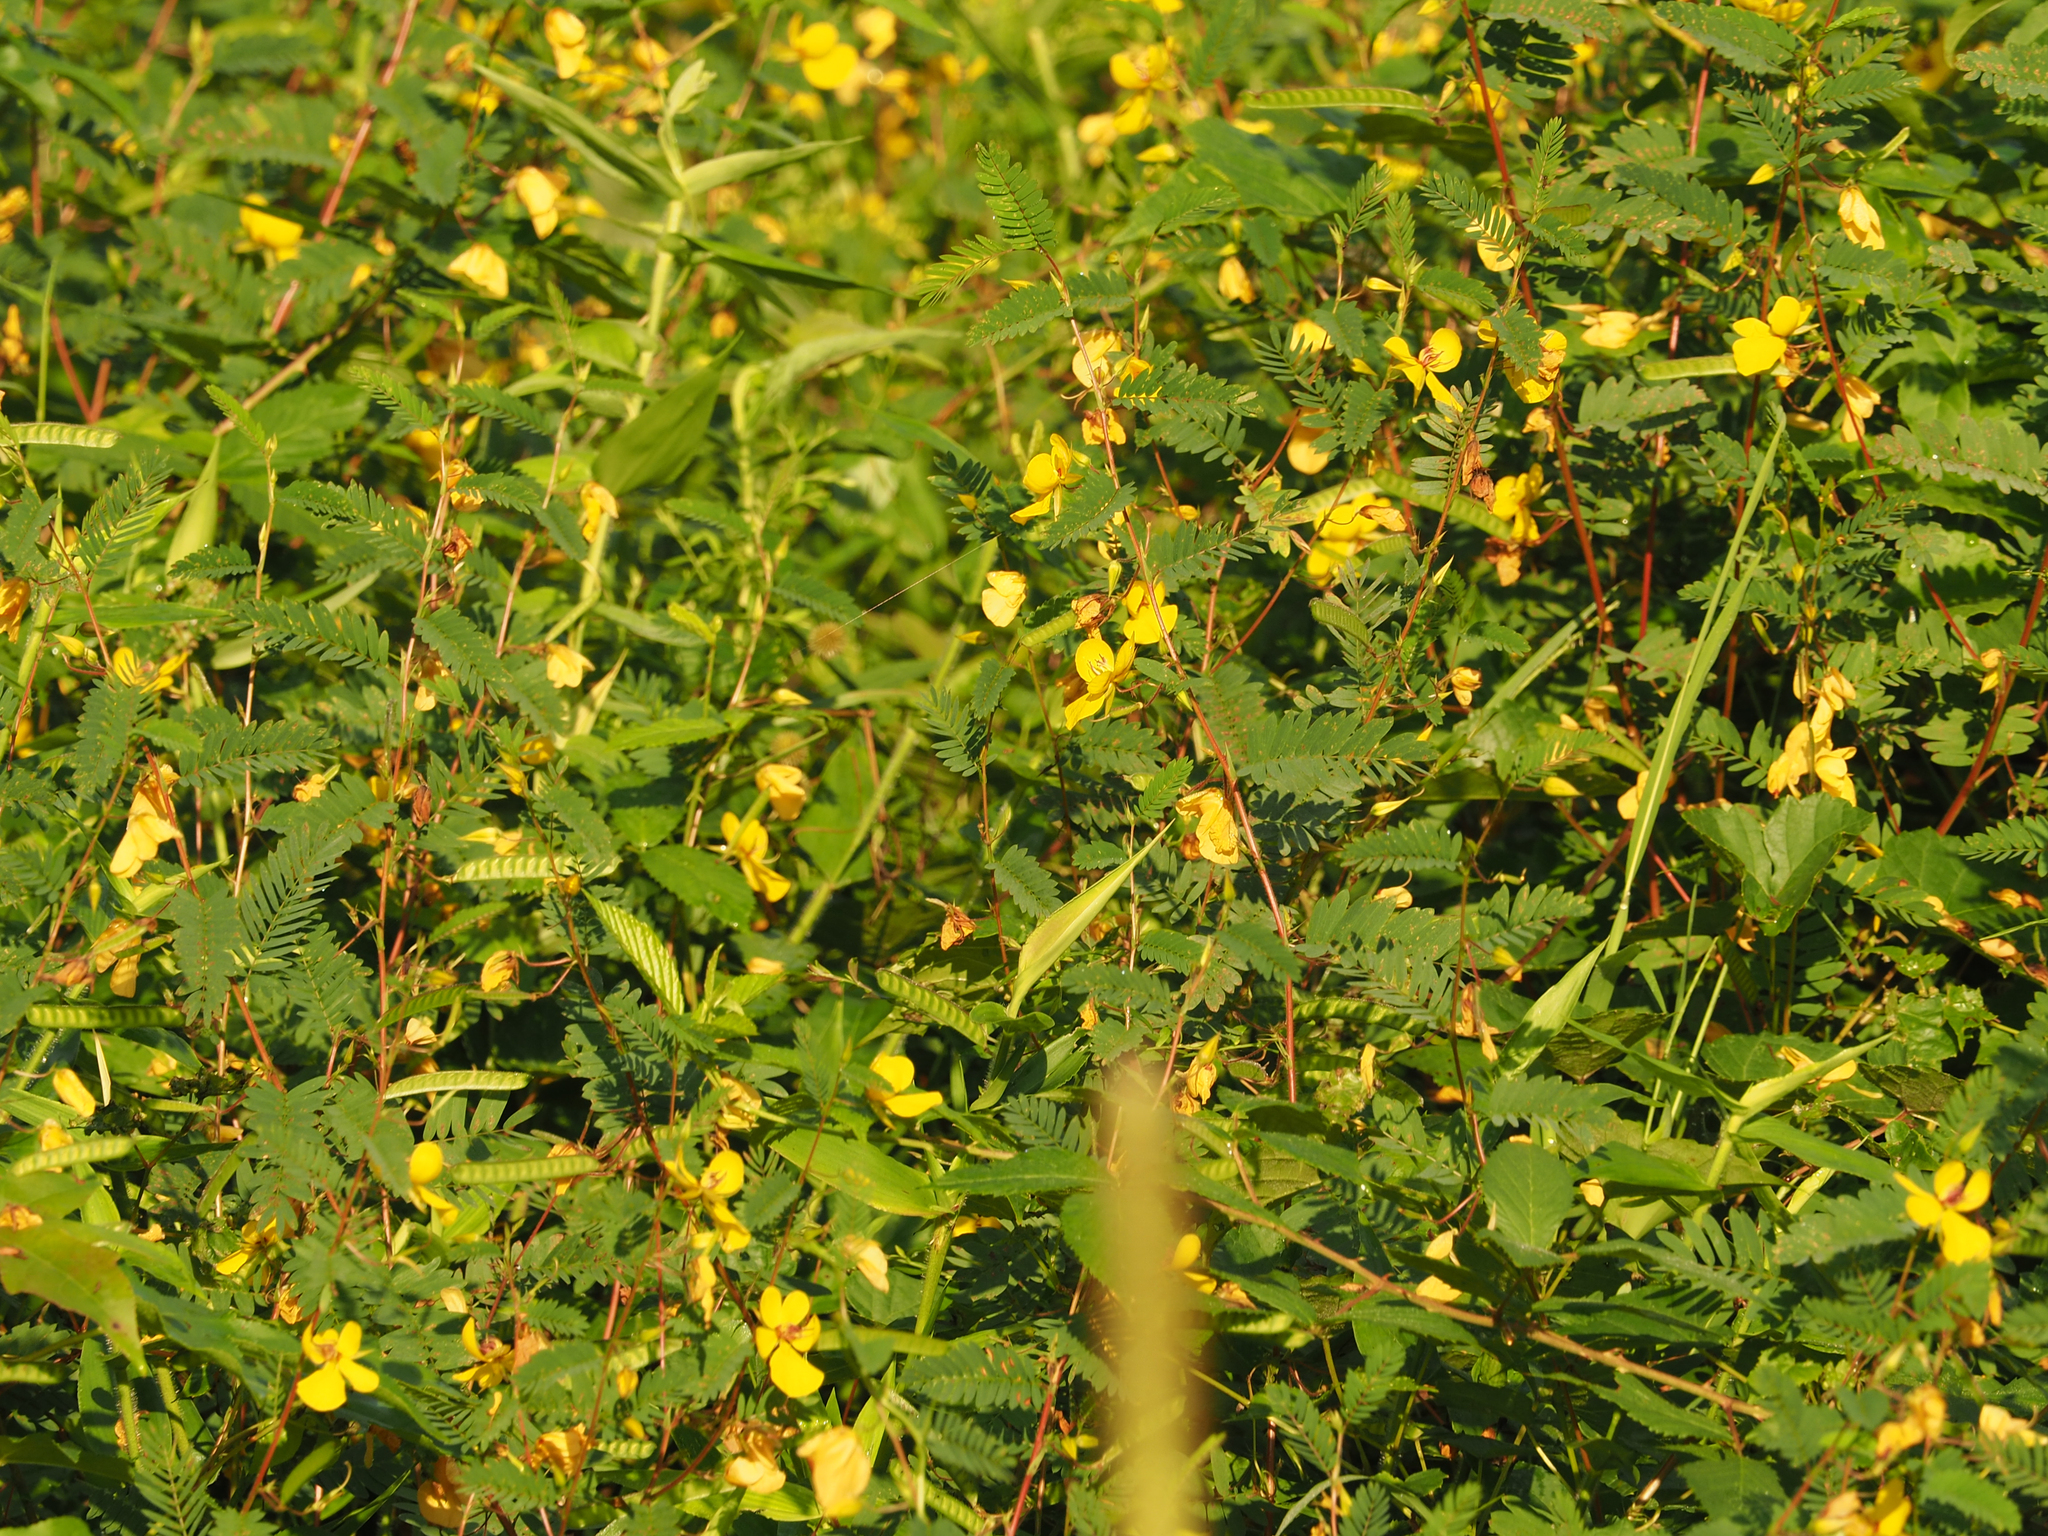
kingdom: Plantae
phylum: Tracheophyta
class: Magnoliopsida
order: Fabales
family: Fabaceae
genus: Chamaecrista
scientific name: Chamaecrista fasciculata
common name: Golden cassia
